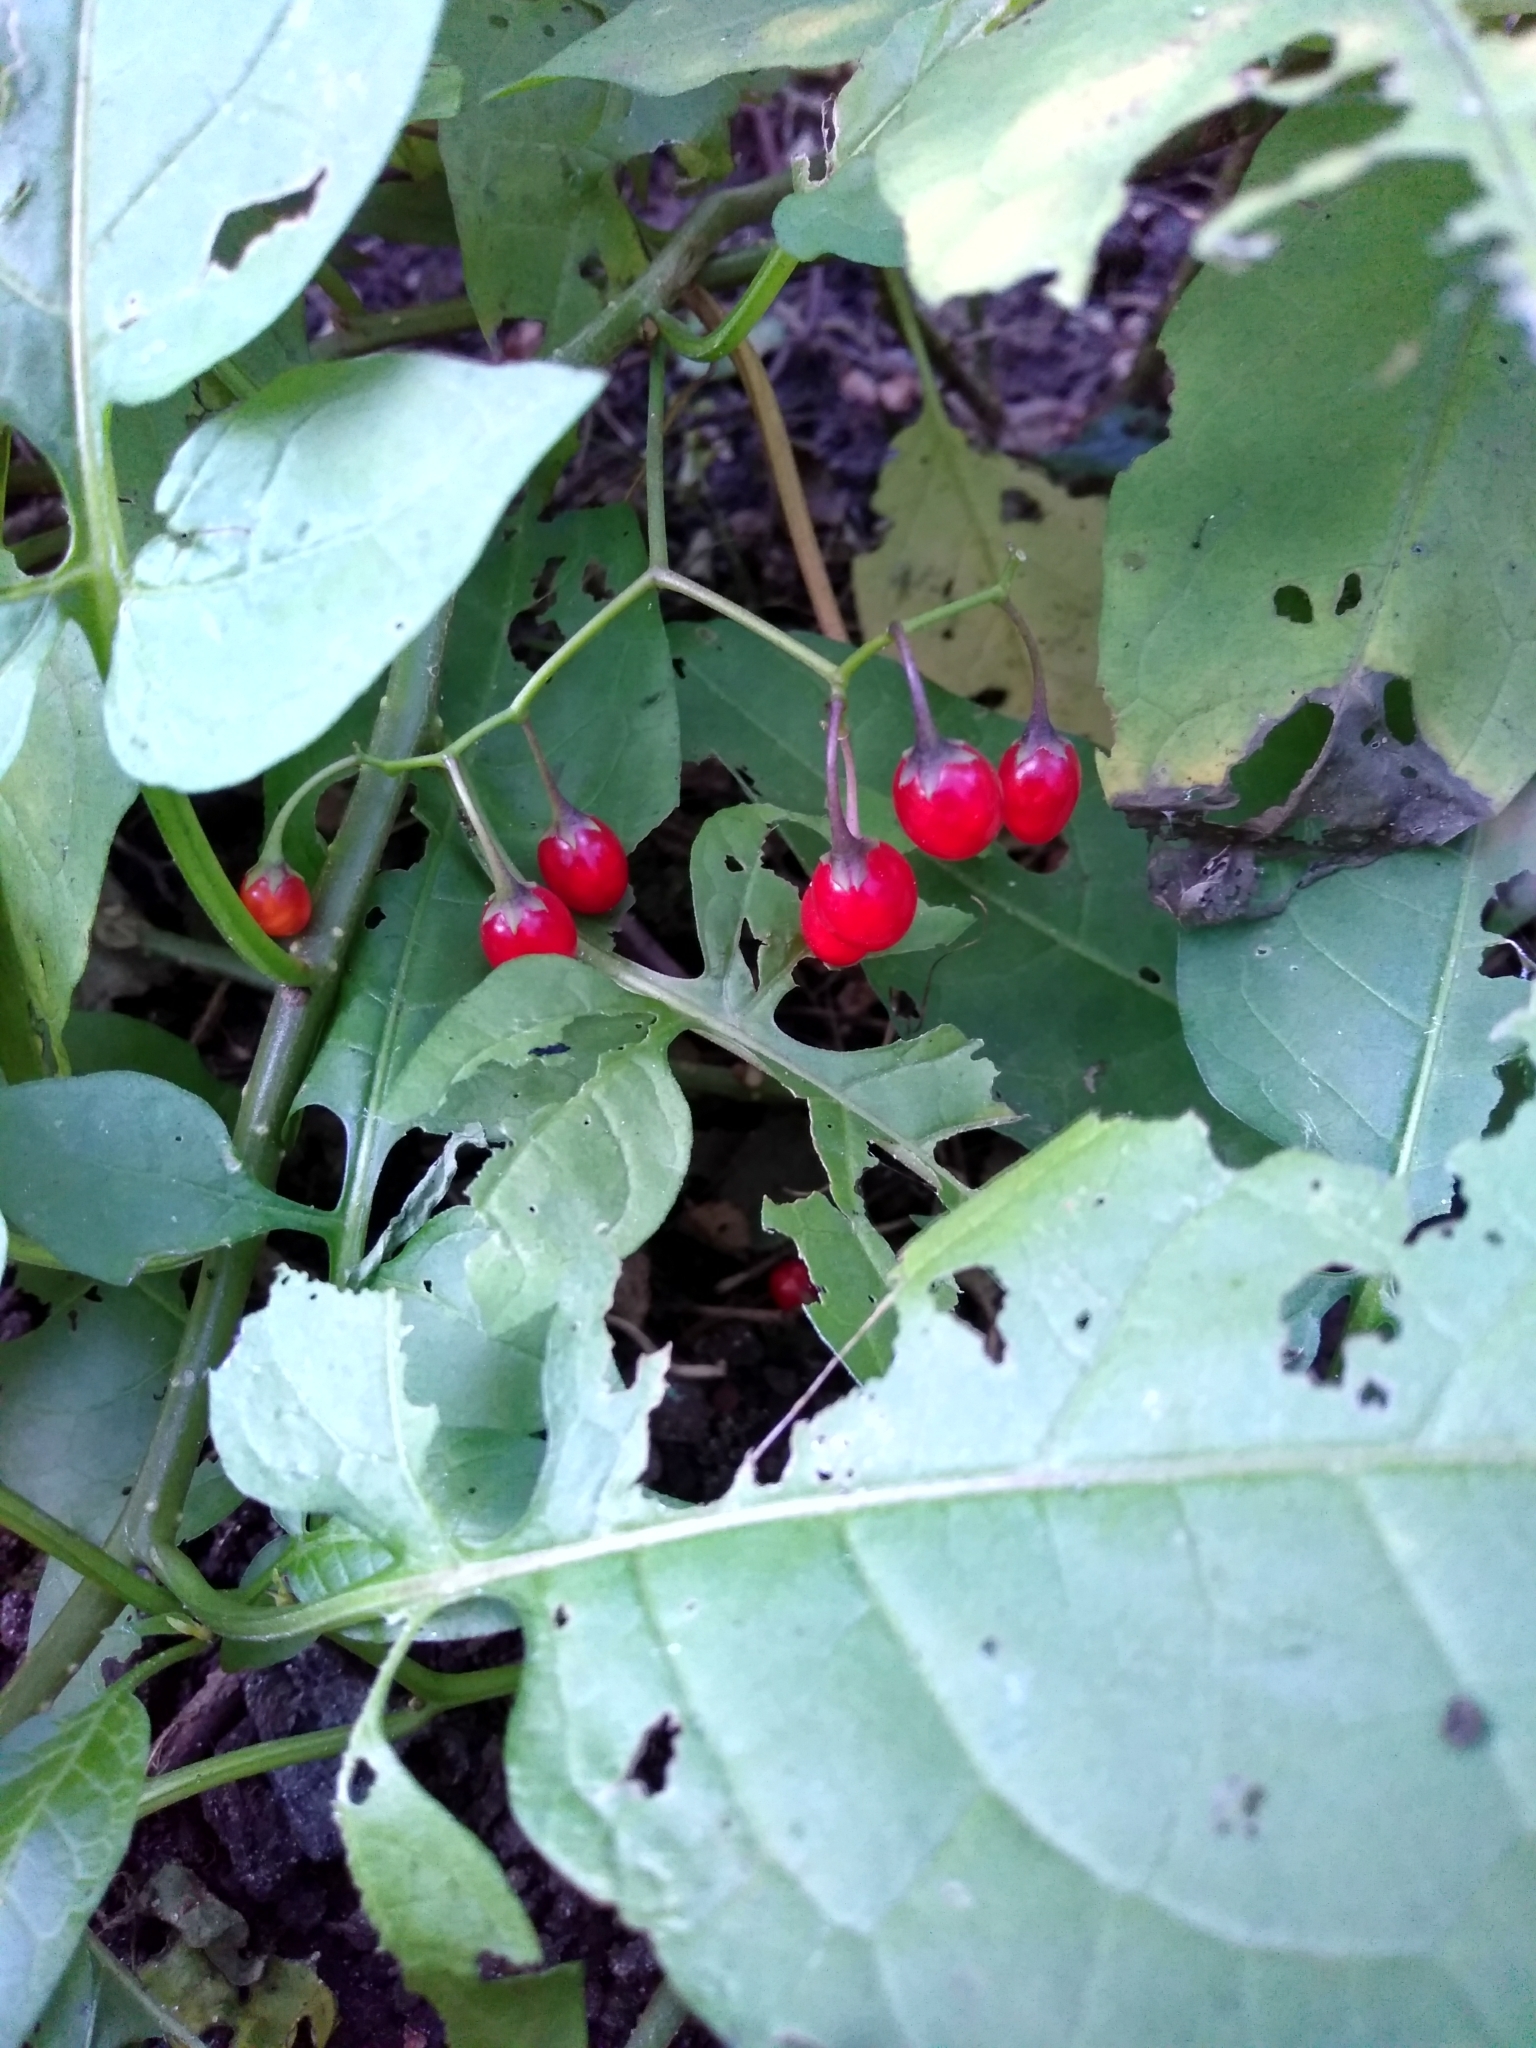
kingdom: Plantae
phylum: Tracheophyta
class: Magnoliopsida
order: Solanales
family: Solanaceae
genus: Solanum
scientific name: Solanum dulcamara
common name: Climbing nightshade
